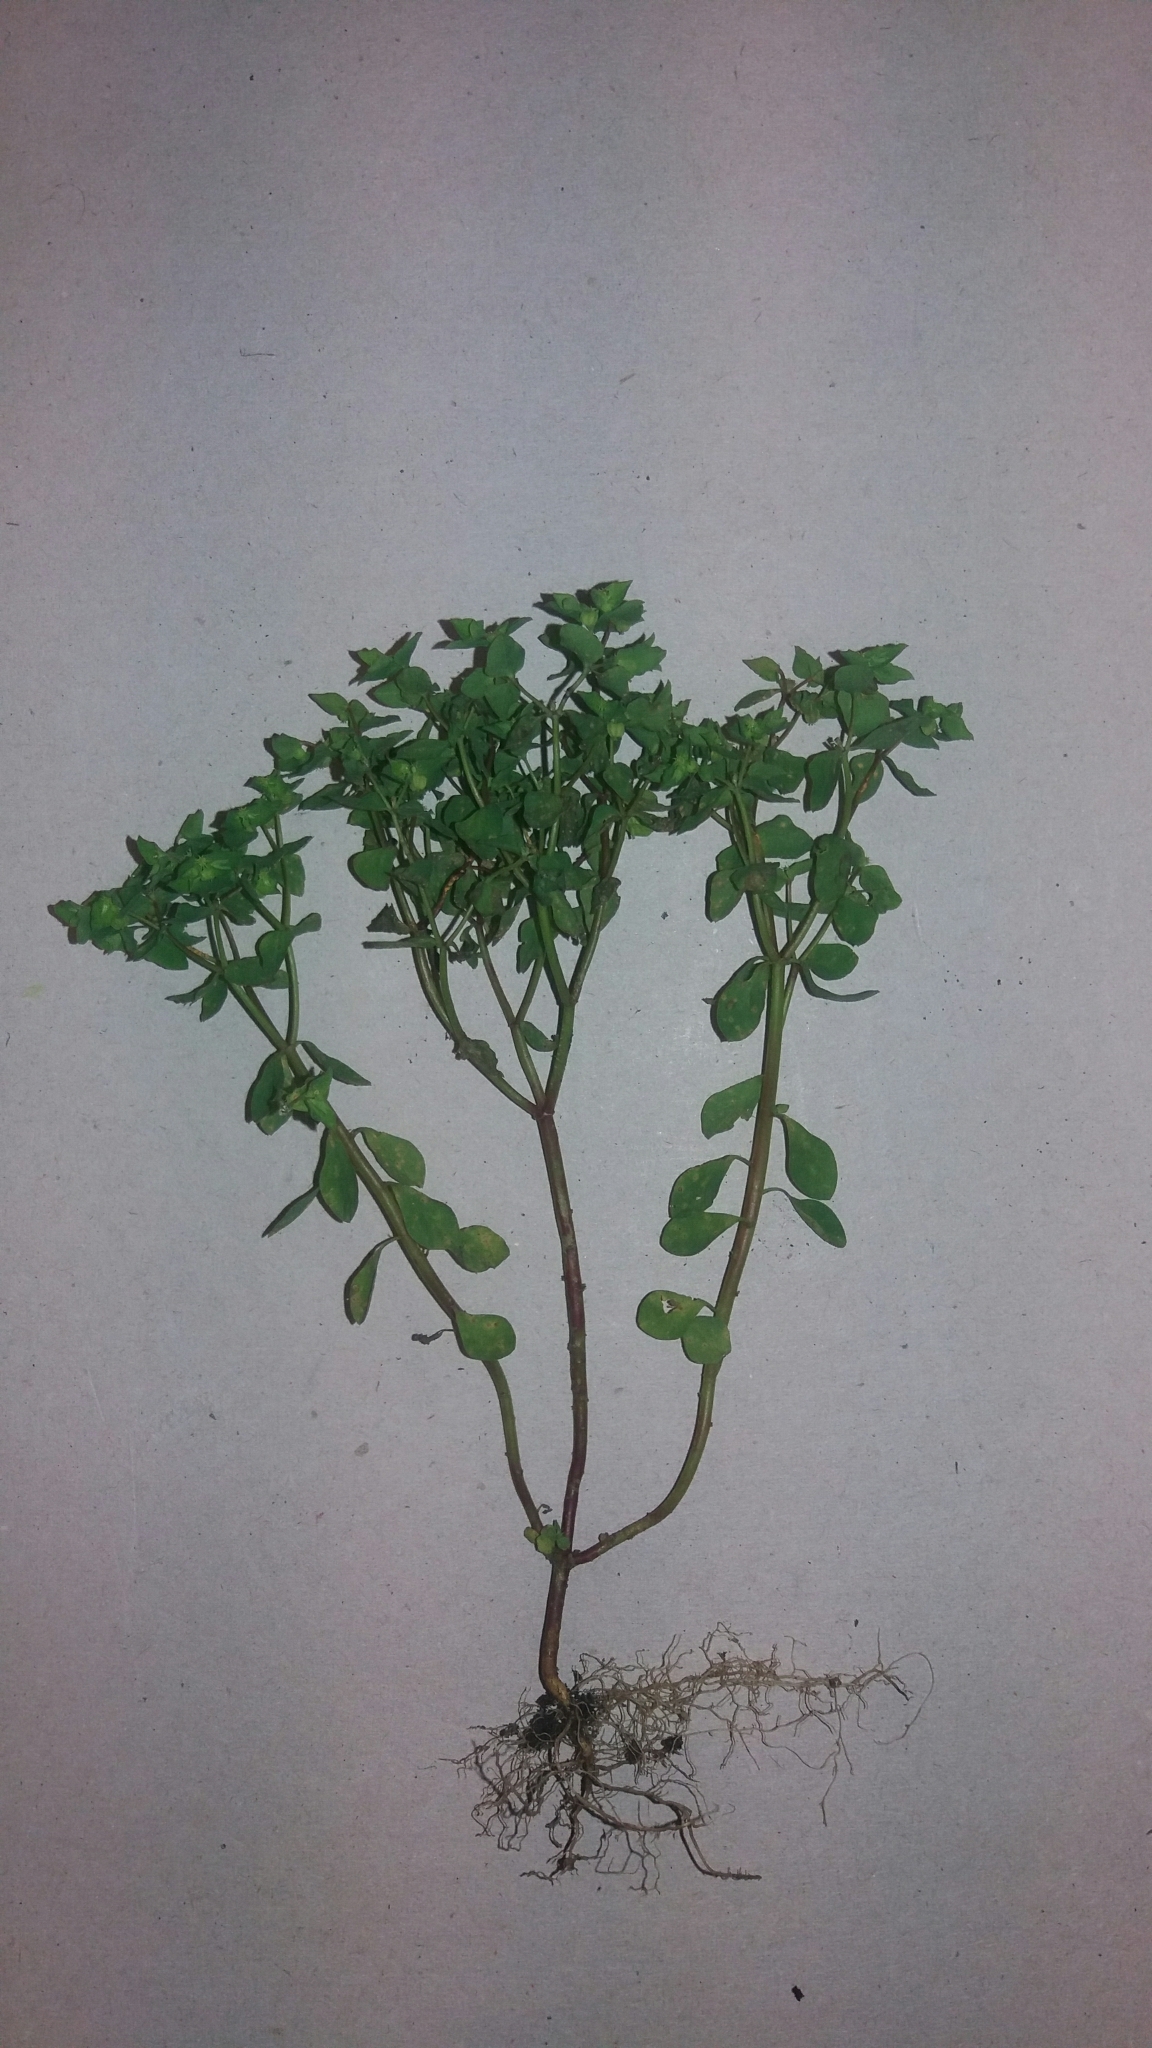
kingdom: Plantae
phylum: Tracheophyta
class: Magnoliopsida
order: Malpighiales
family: Euphorbiaceae
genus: Euphorbia
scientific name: Euphorbia peplus
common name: Petty spurge
